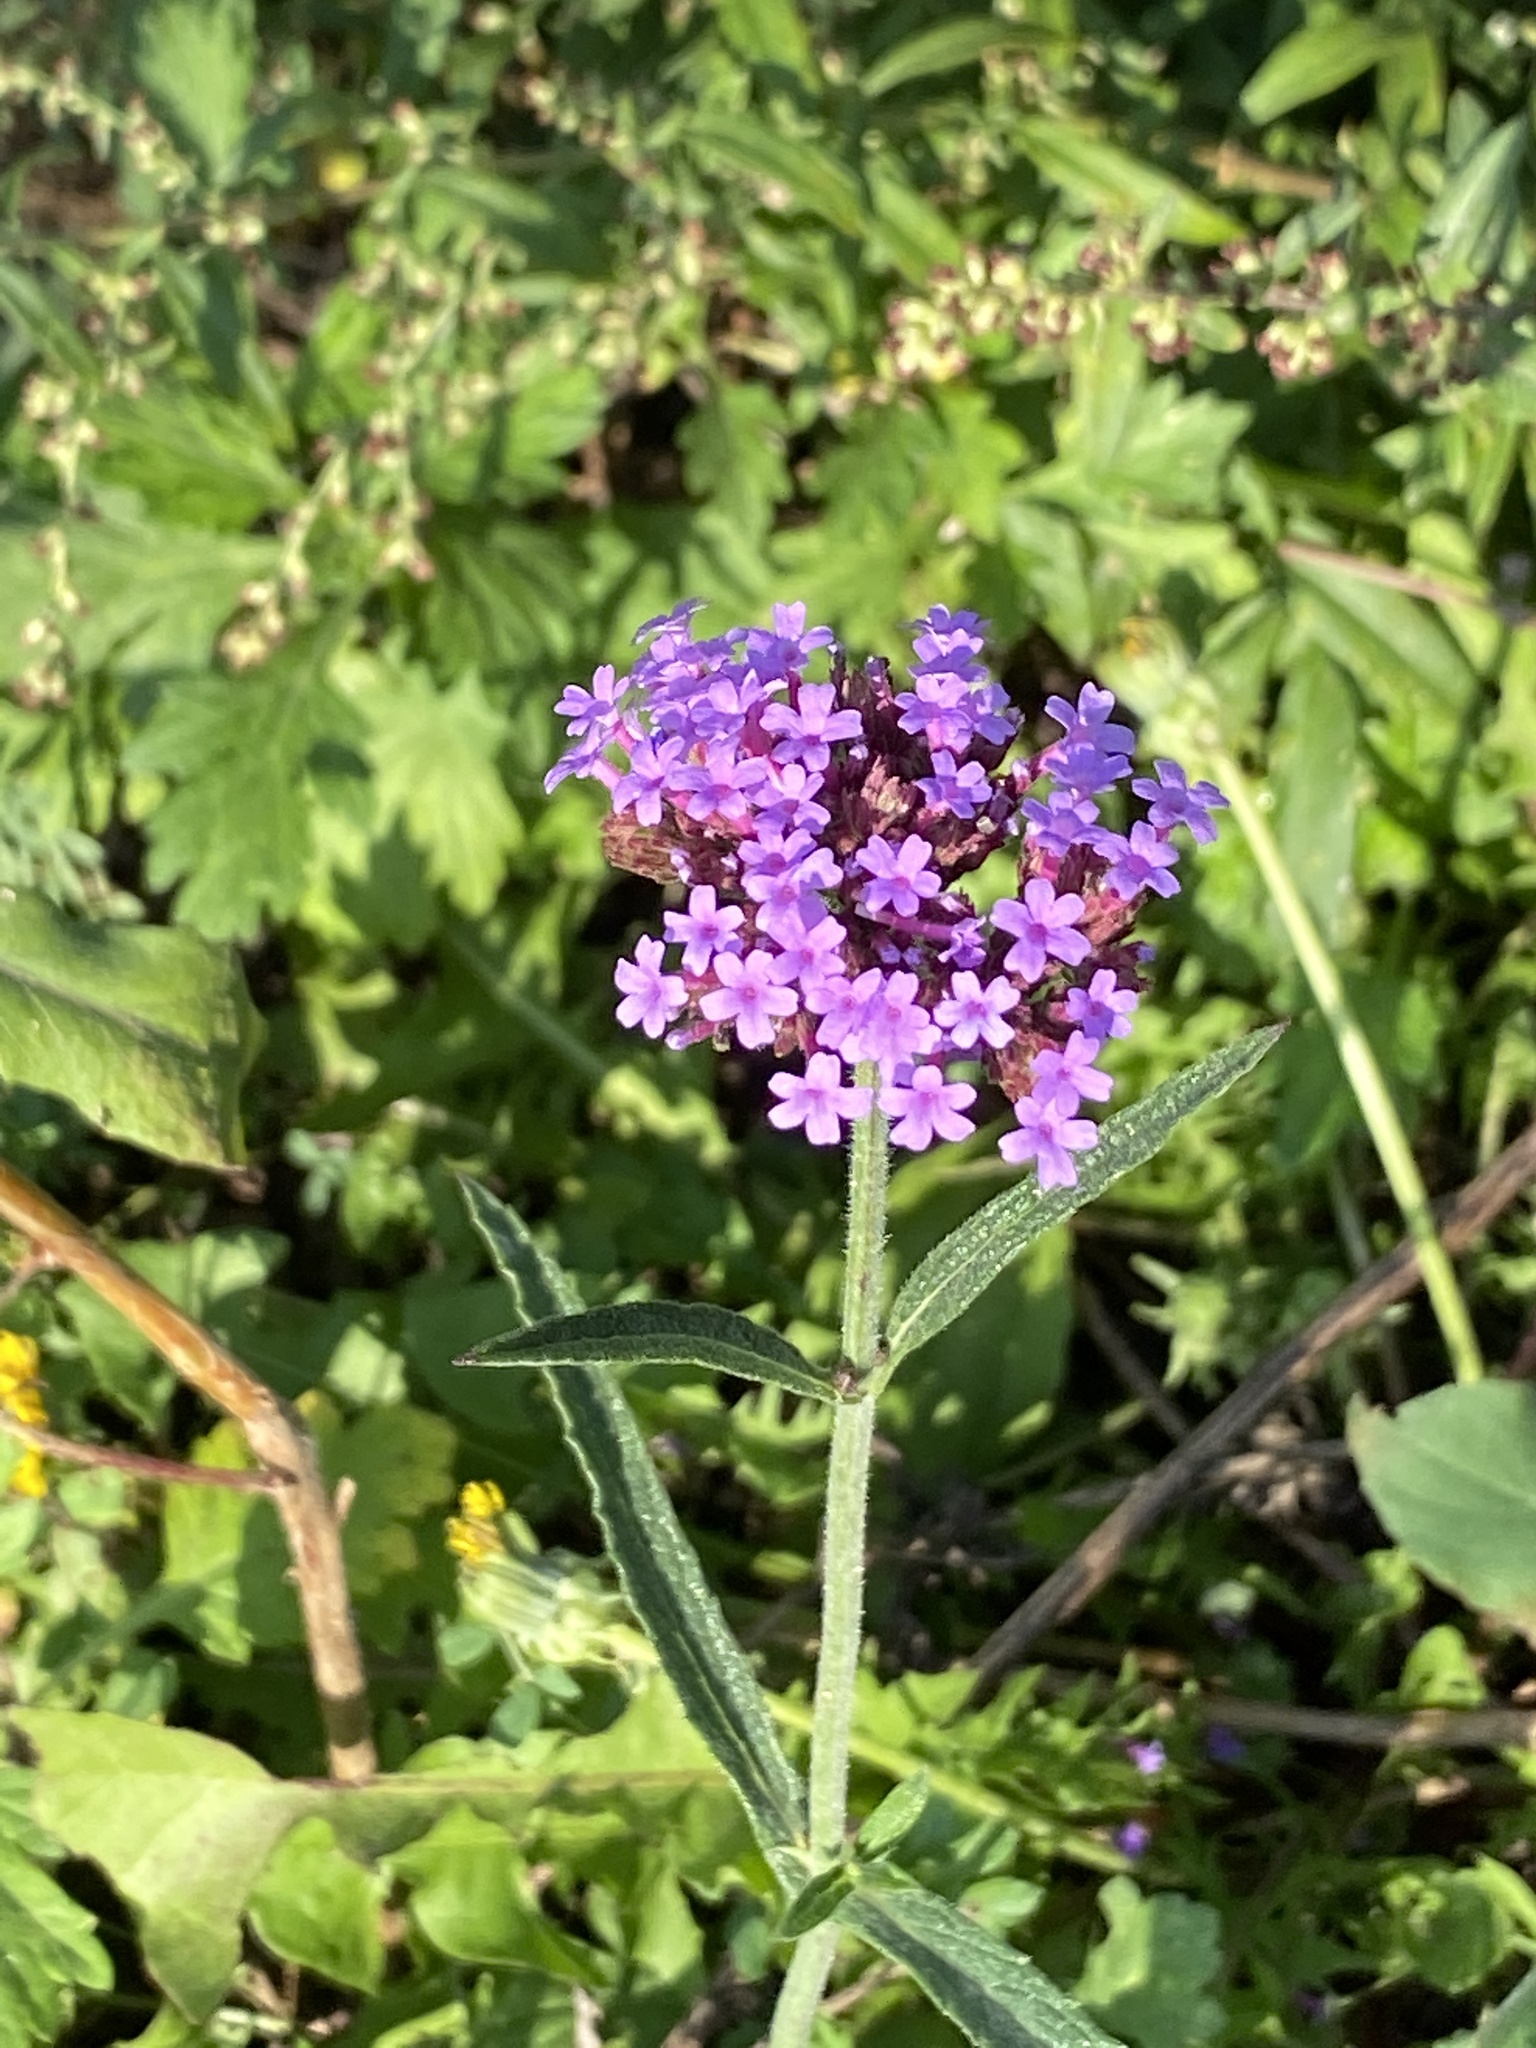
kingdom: Plantae
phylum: Tracheophyta
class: Magnoliopsida
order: Lamiales
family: Verbenaceae
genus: Verbena
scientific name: Verbena bonariensis
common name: Purpletop vervain
